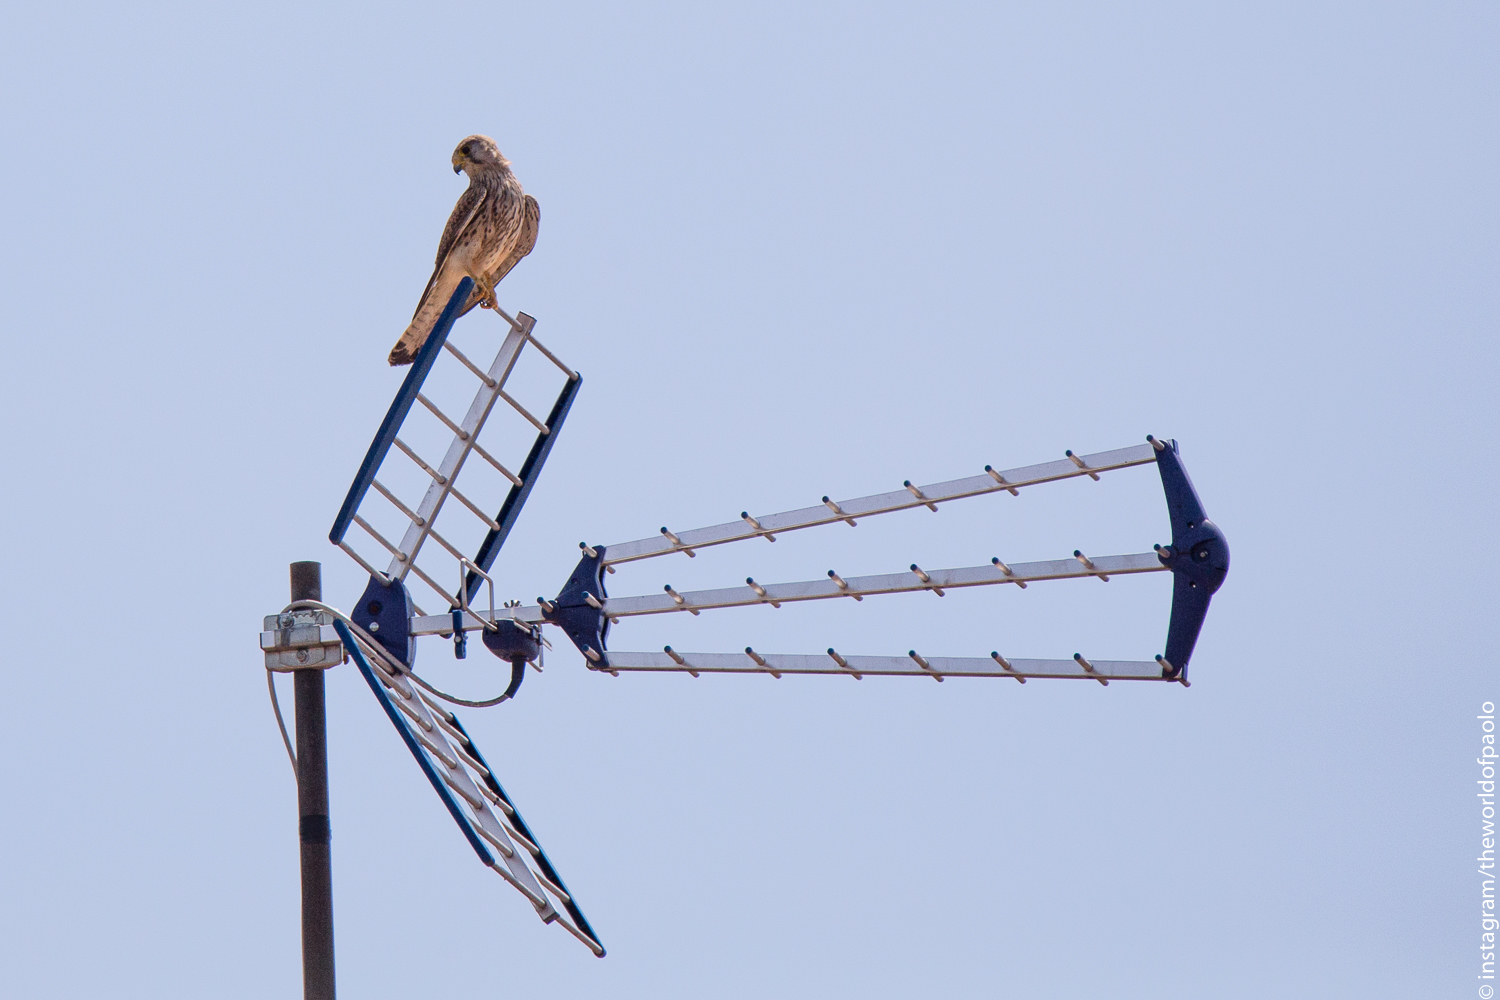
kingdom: Animalia
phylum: Chordata
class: Aves
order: Falconiformes
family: Falconidae
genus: Falco
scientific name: Falco tinnunculus
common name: Common kestrel
